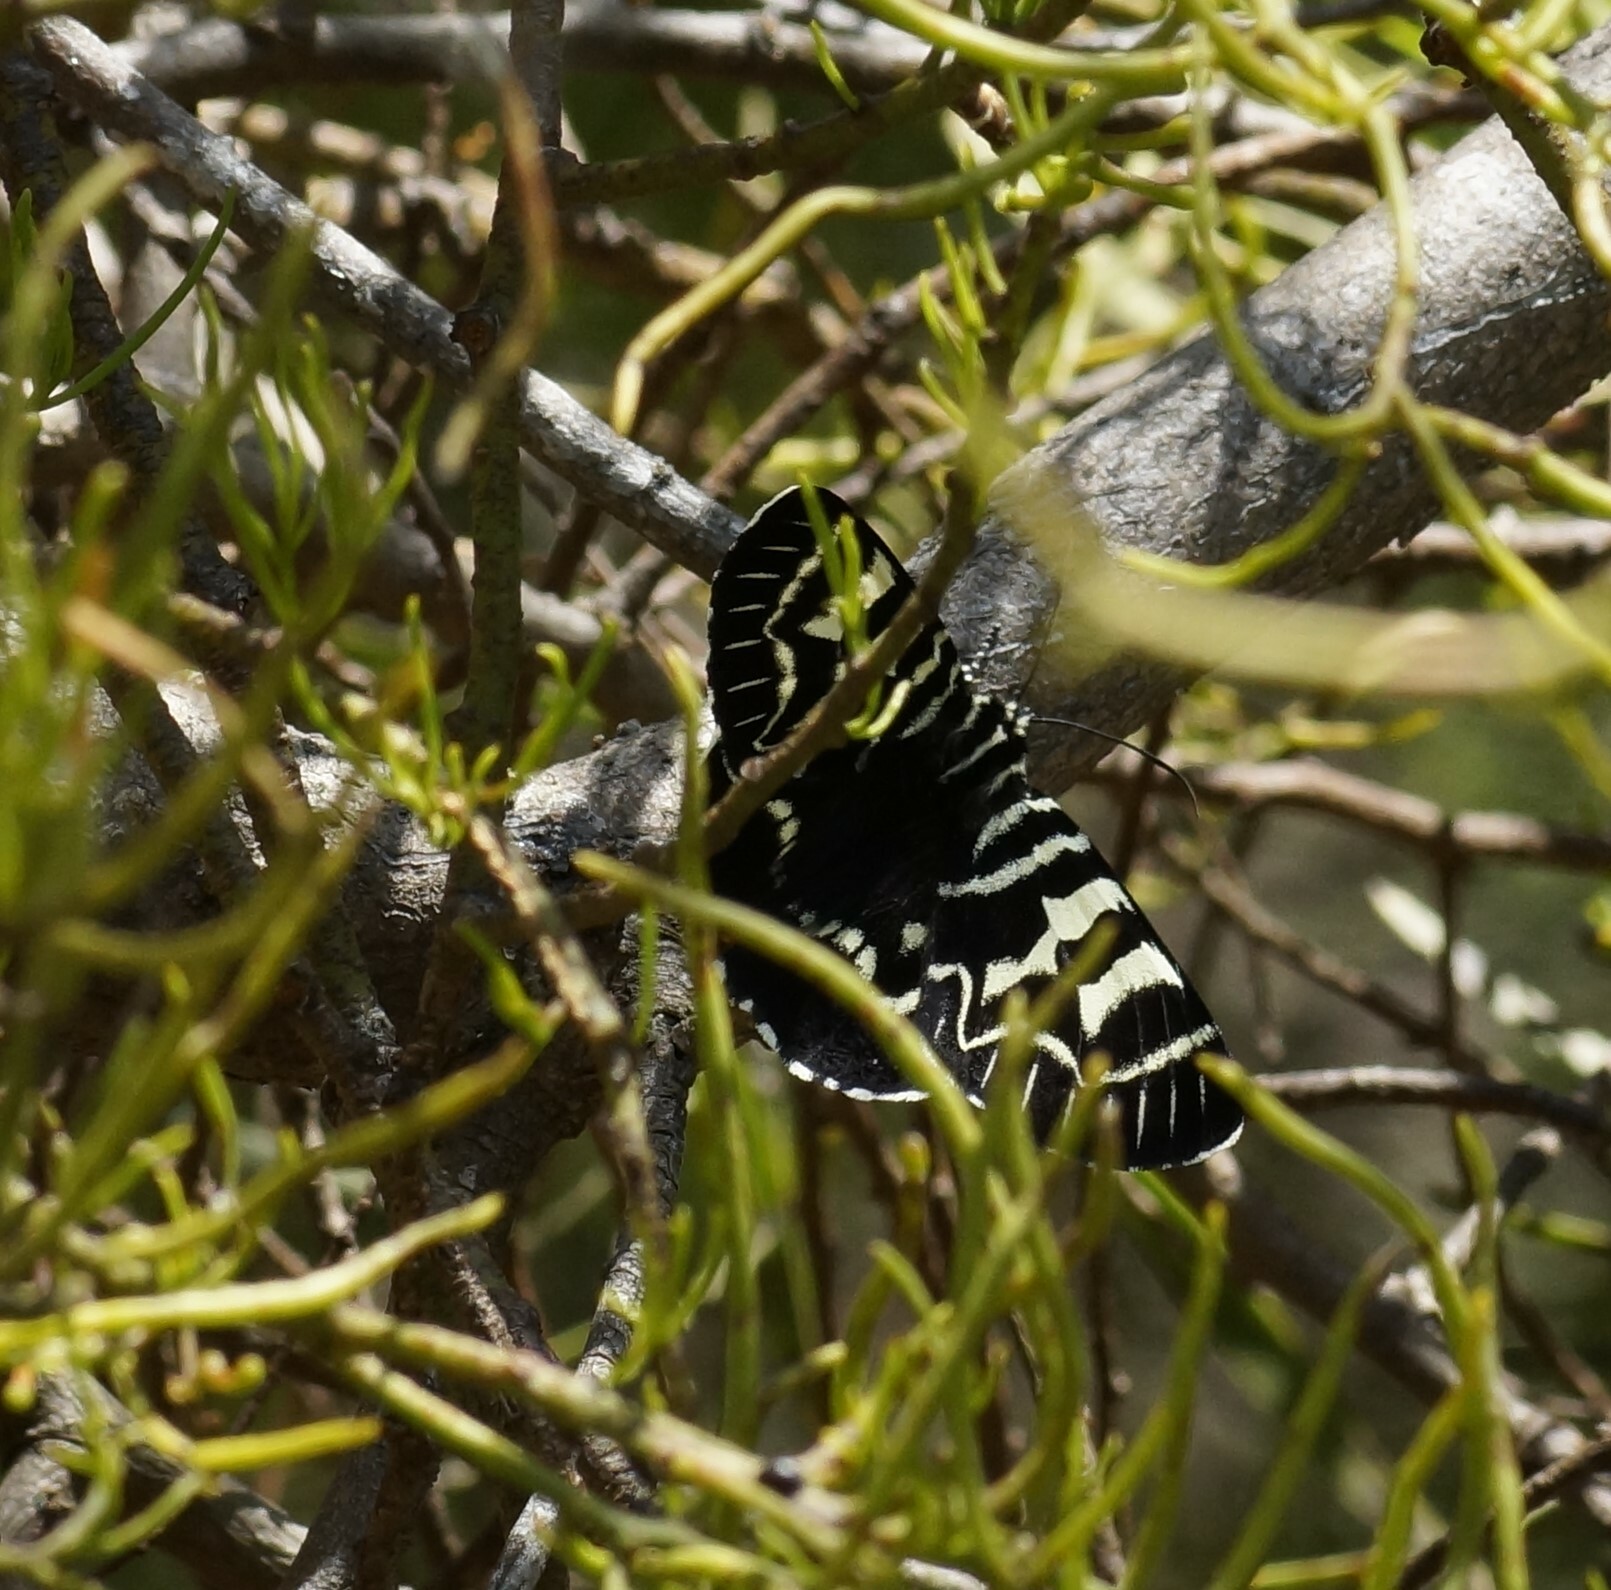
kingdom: Animalia
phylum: Arthropoda
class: Insecta
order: Lepidoptera
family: Noctuidae
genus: Comocrus
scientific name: Comocrus behri
